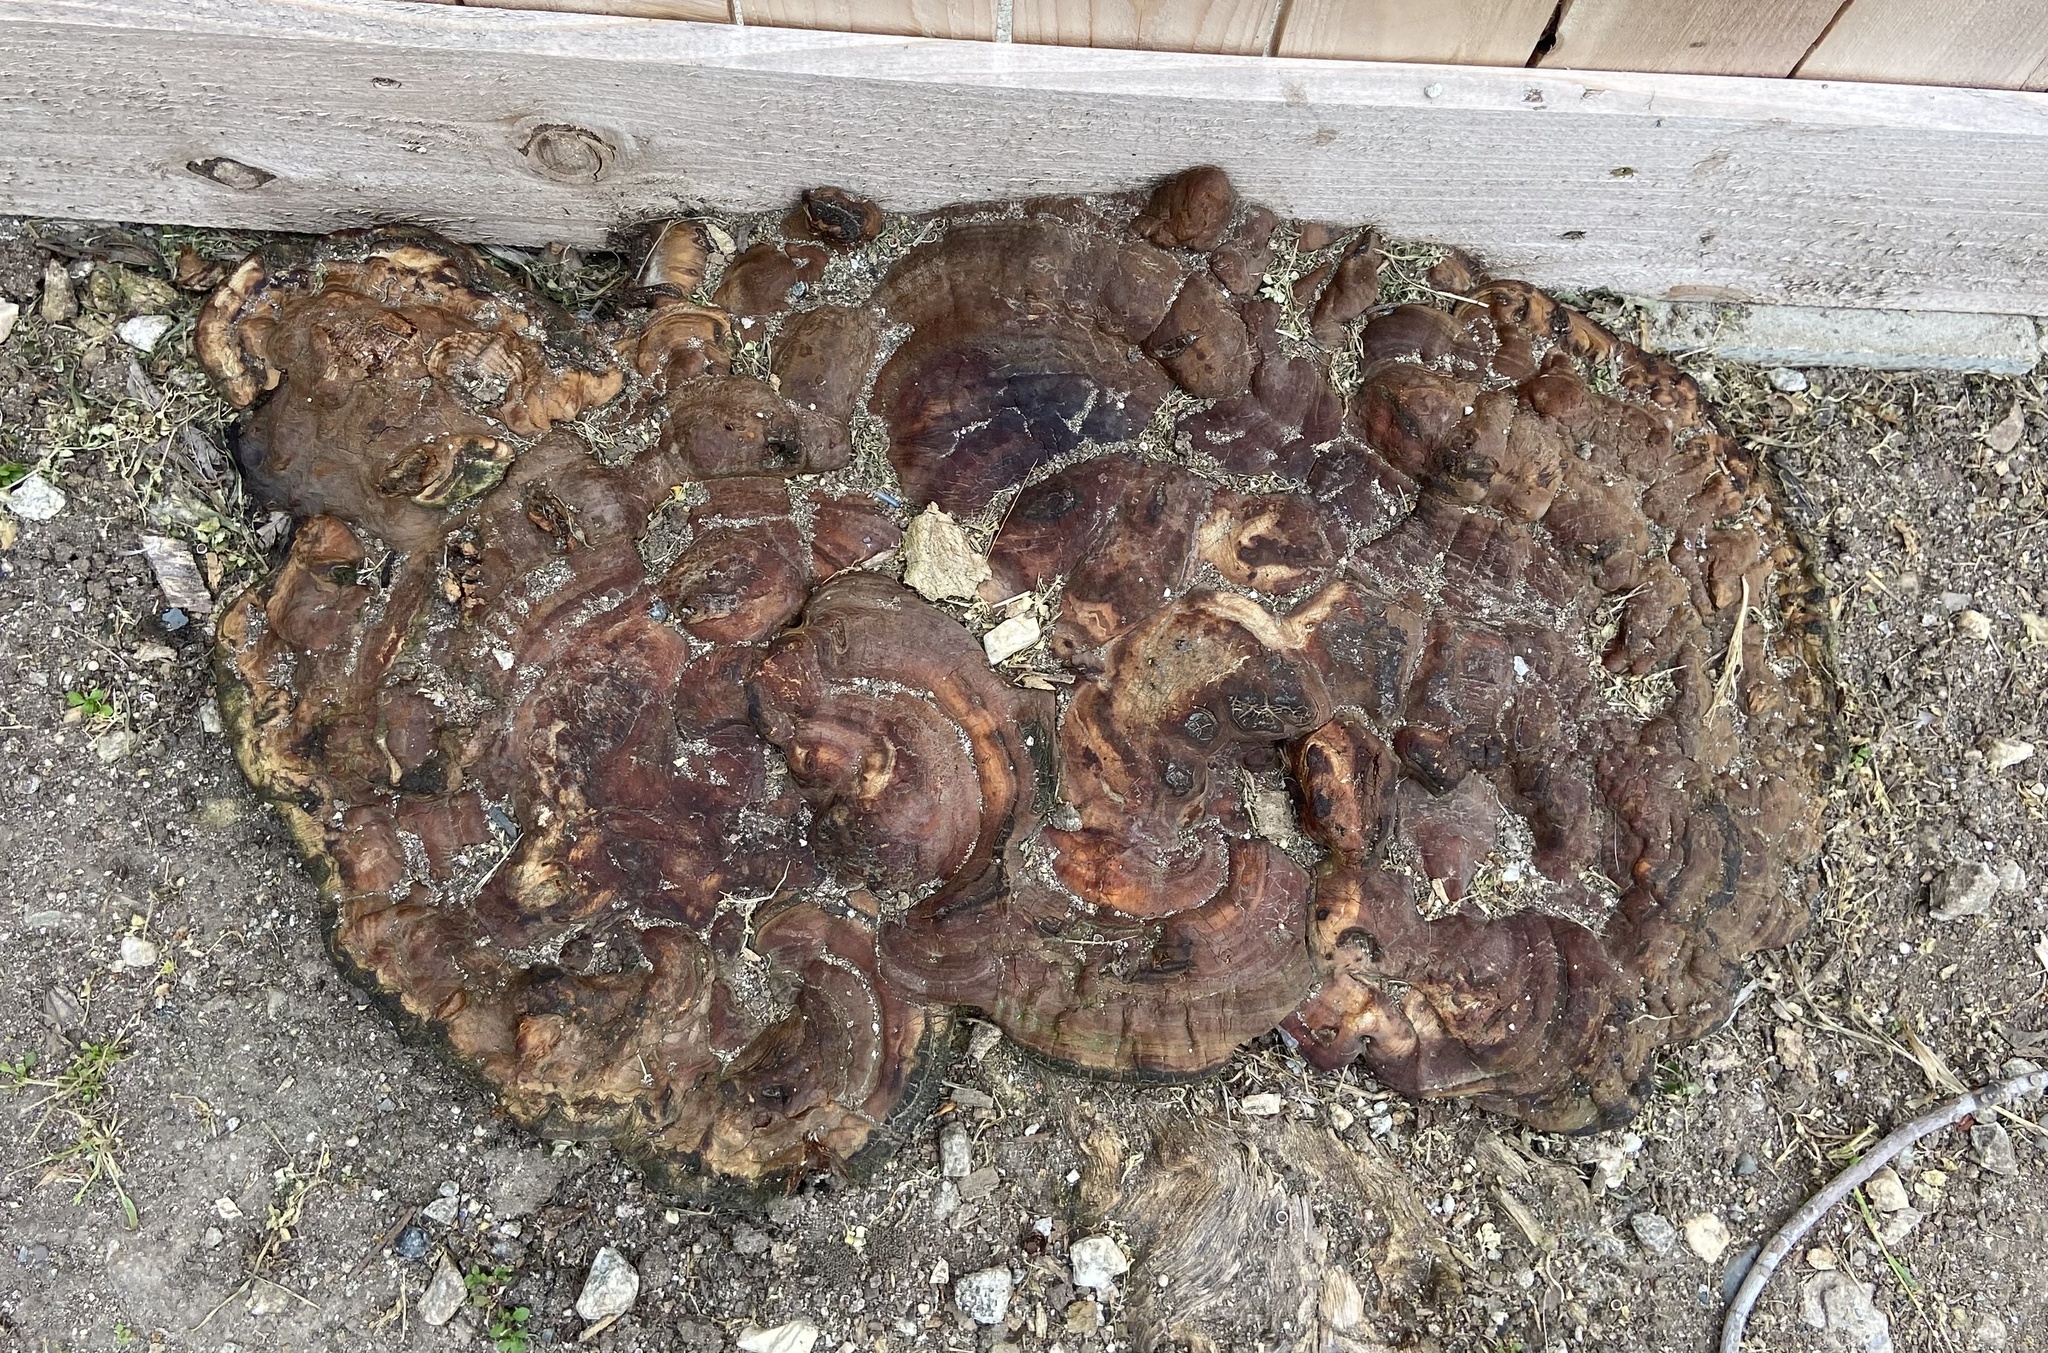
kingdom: Fungi
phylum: Basidiomycota
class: Agaricomycetes
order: Polyporales
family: Polyporaceae
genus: Ganoderma
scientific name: Ganoderma resinaceum
